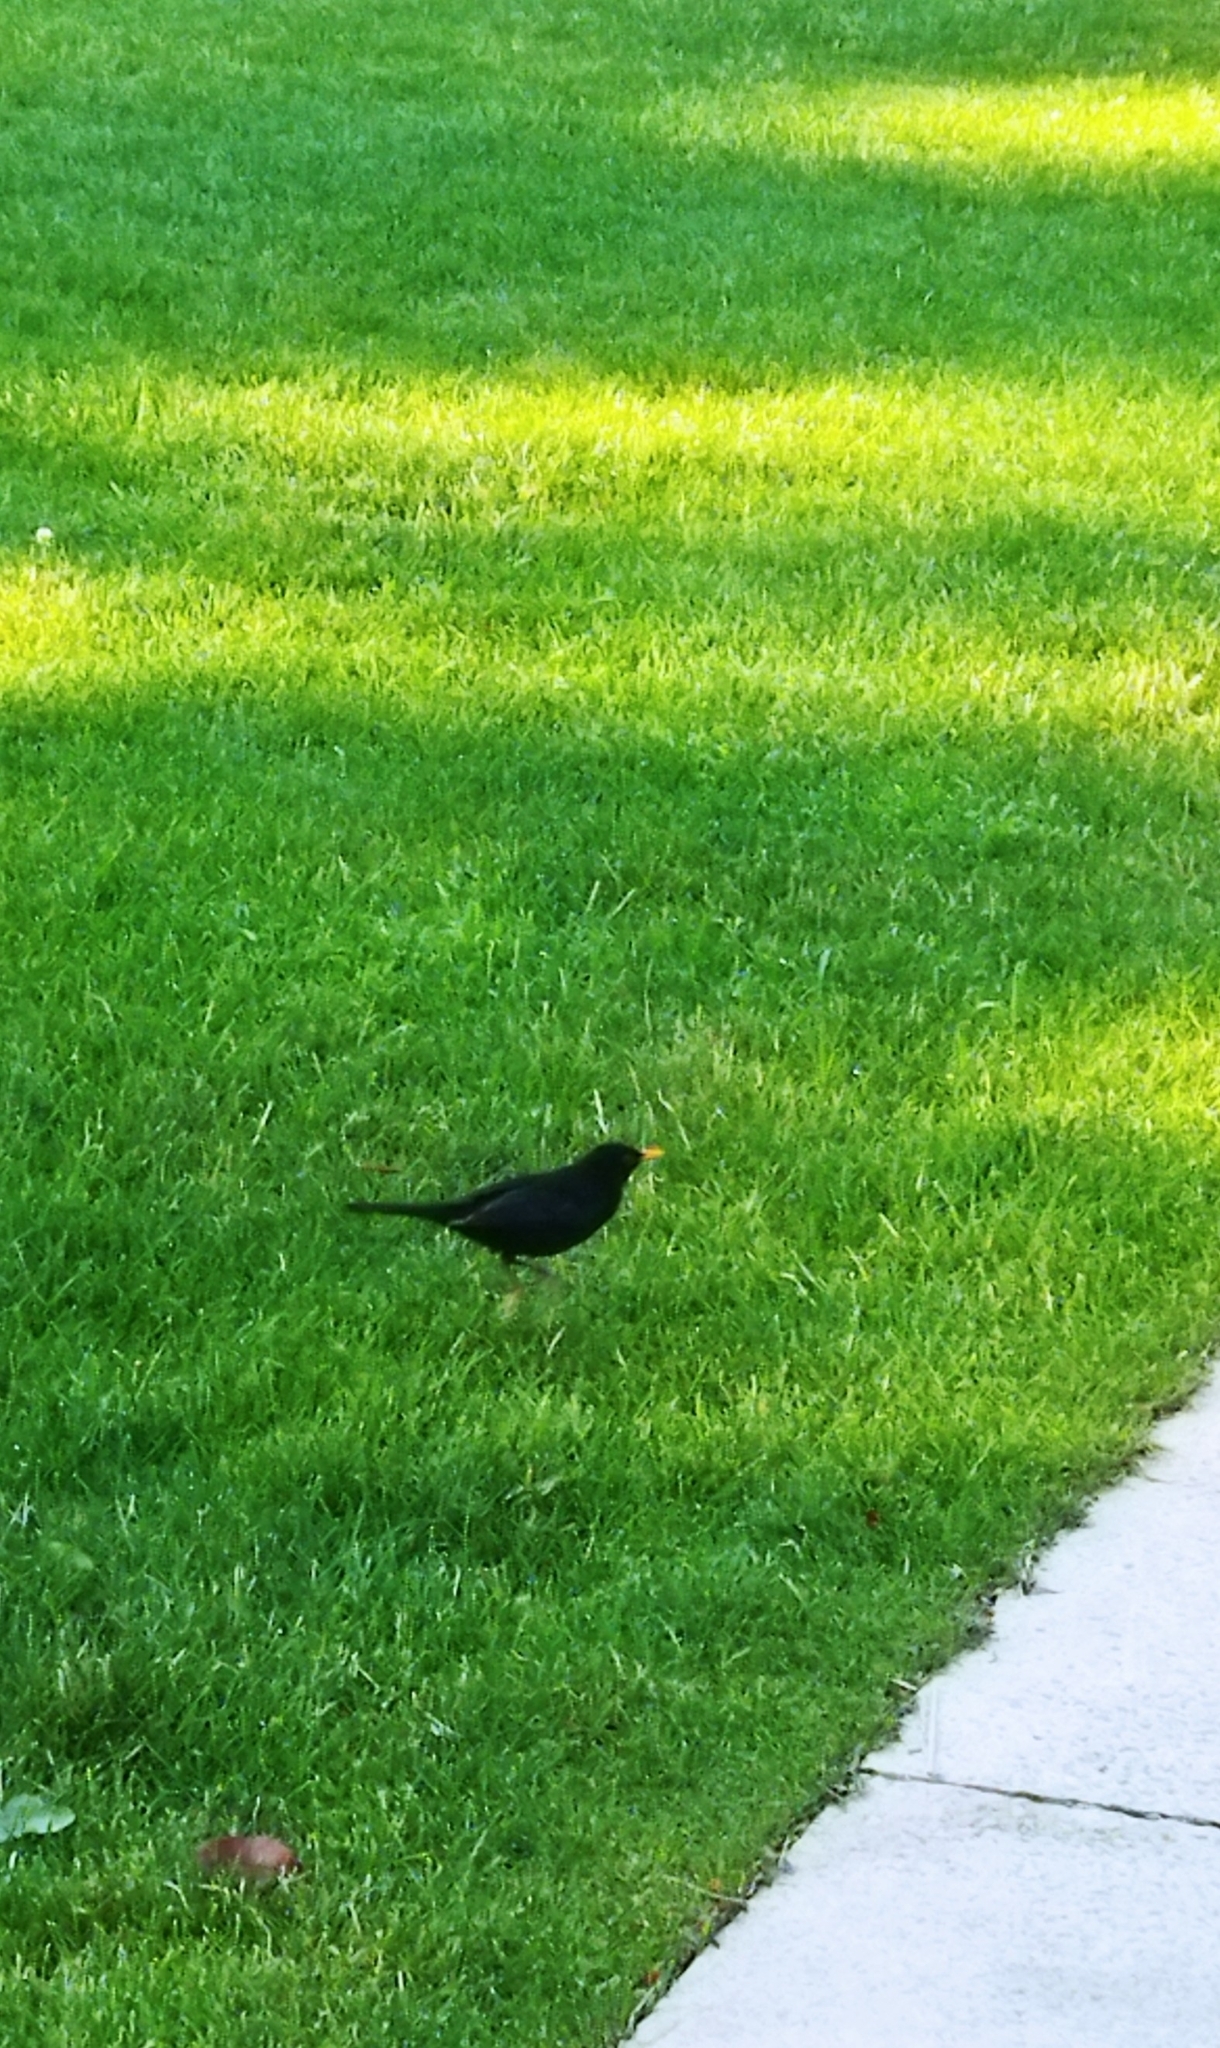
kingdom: Animalia
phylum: Chordata
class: Aves
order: Passeriformes
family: Turdidae
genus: Turdus
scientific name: Turdus merula
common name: Common blackbird
